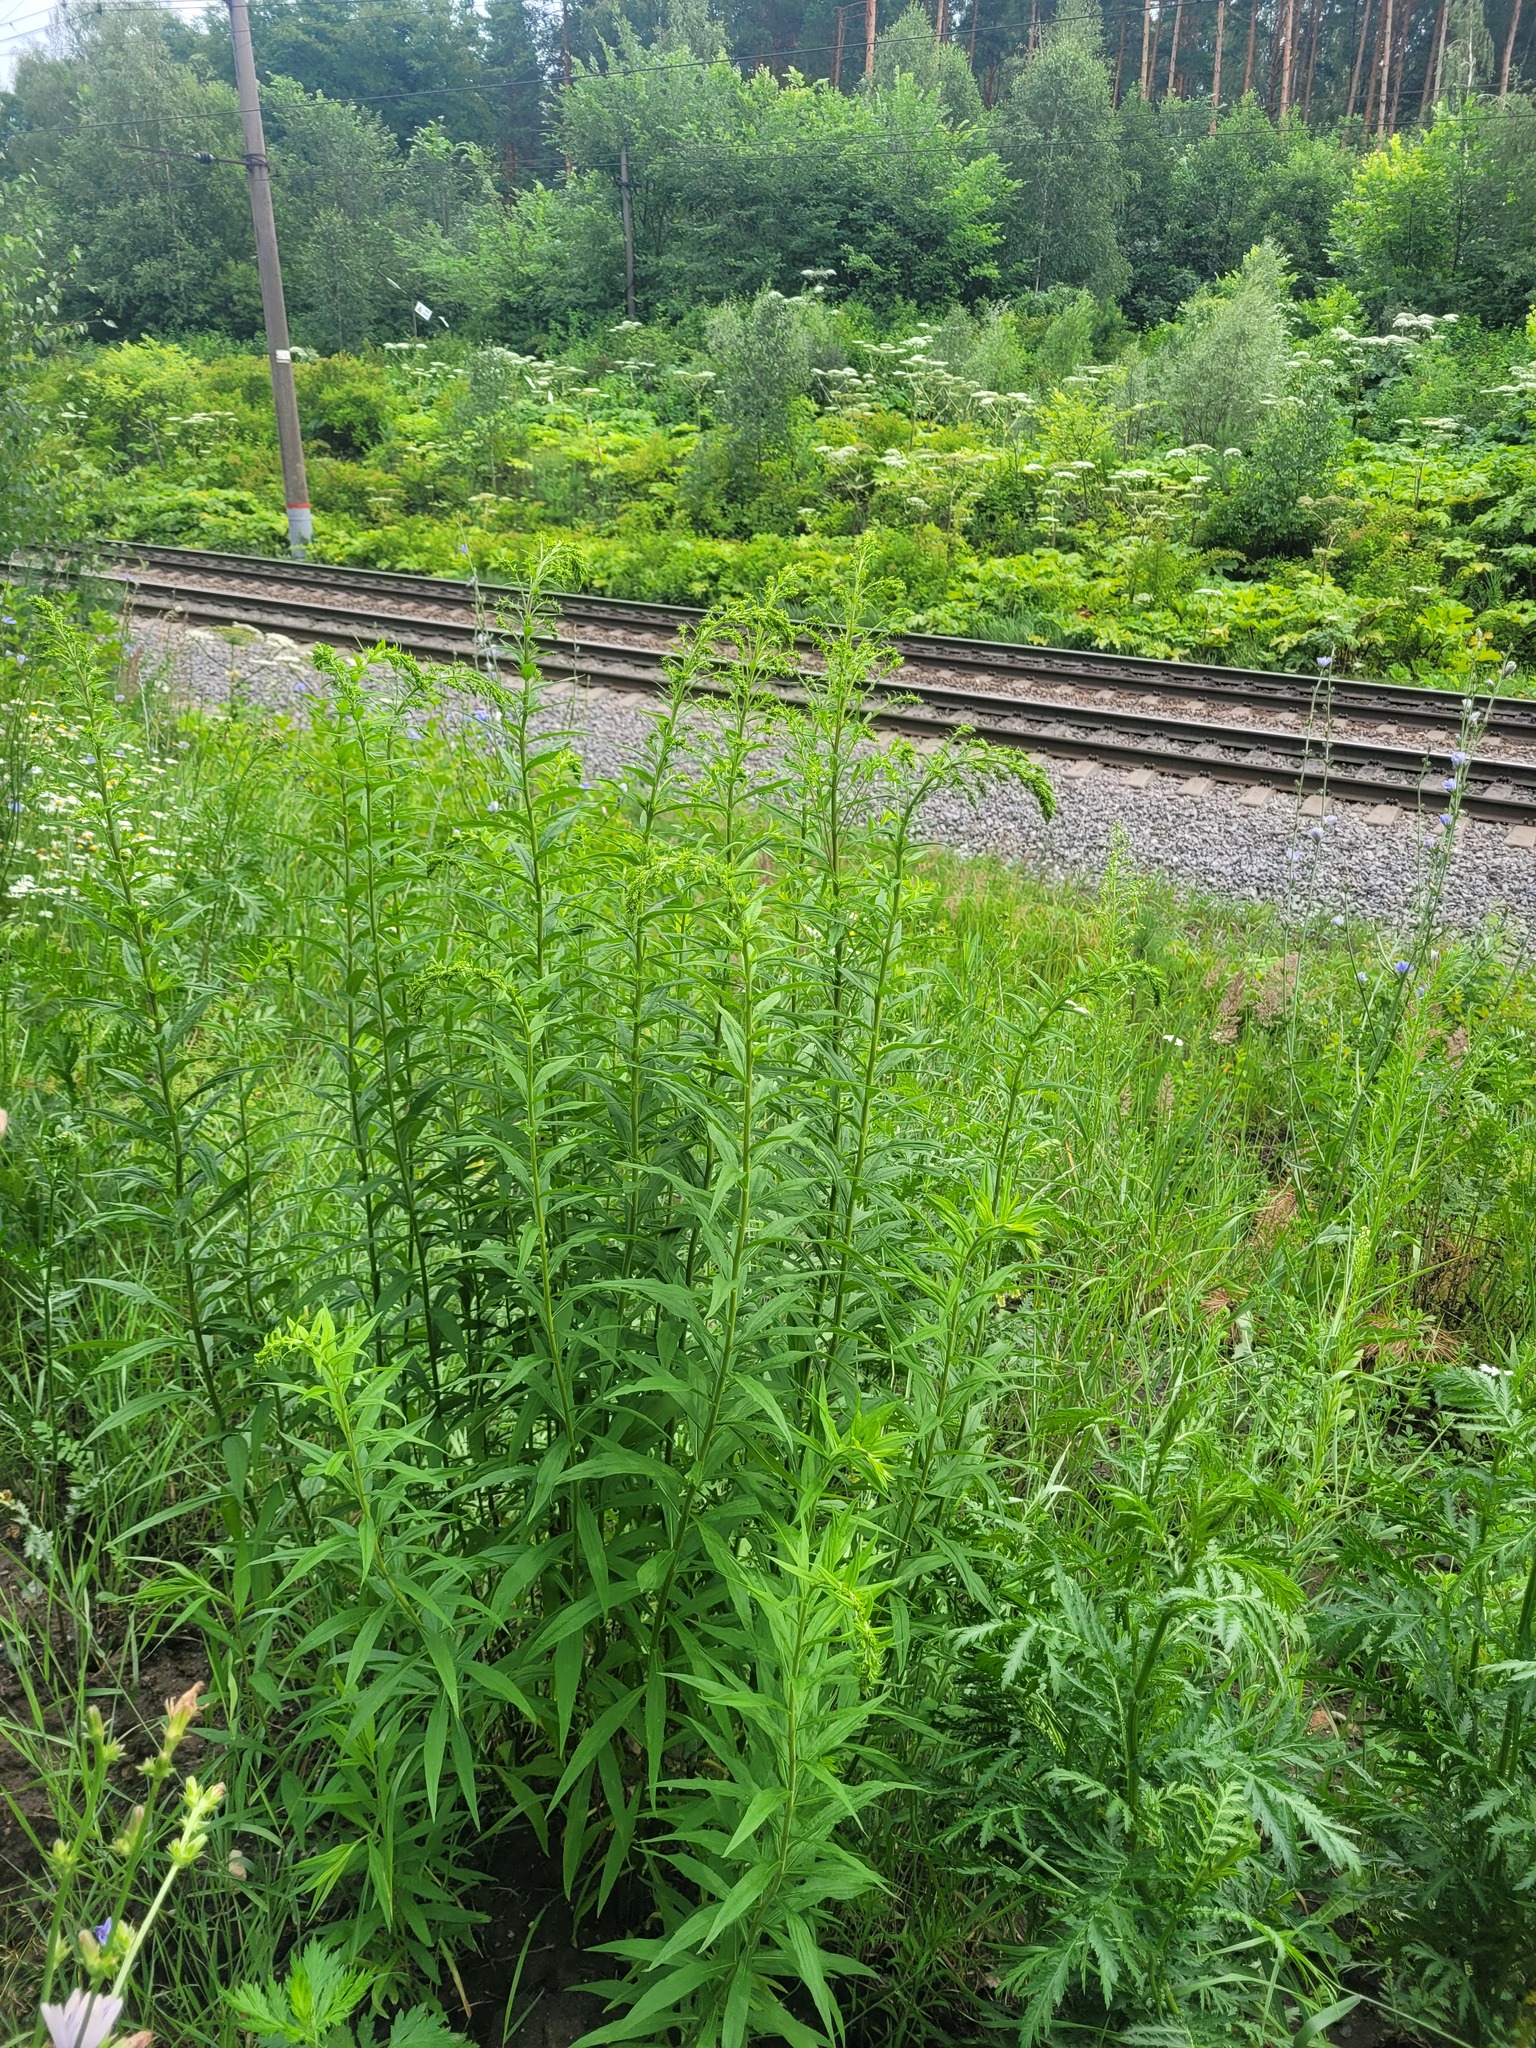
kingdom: Plantae
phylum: Tracheophyta
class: Magnoliopsida
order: Asterales
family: Asteraceae
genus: Solidago
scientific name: Solidago canadensis
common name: Canada goldenrod
